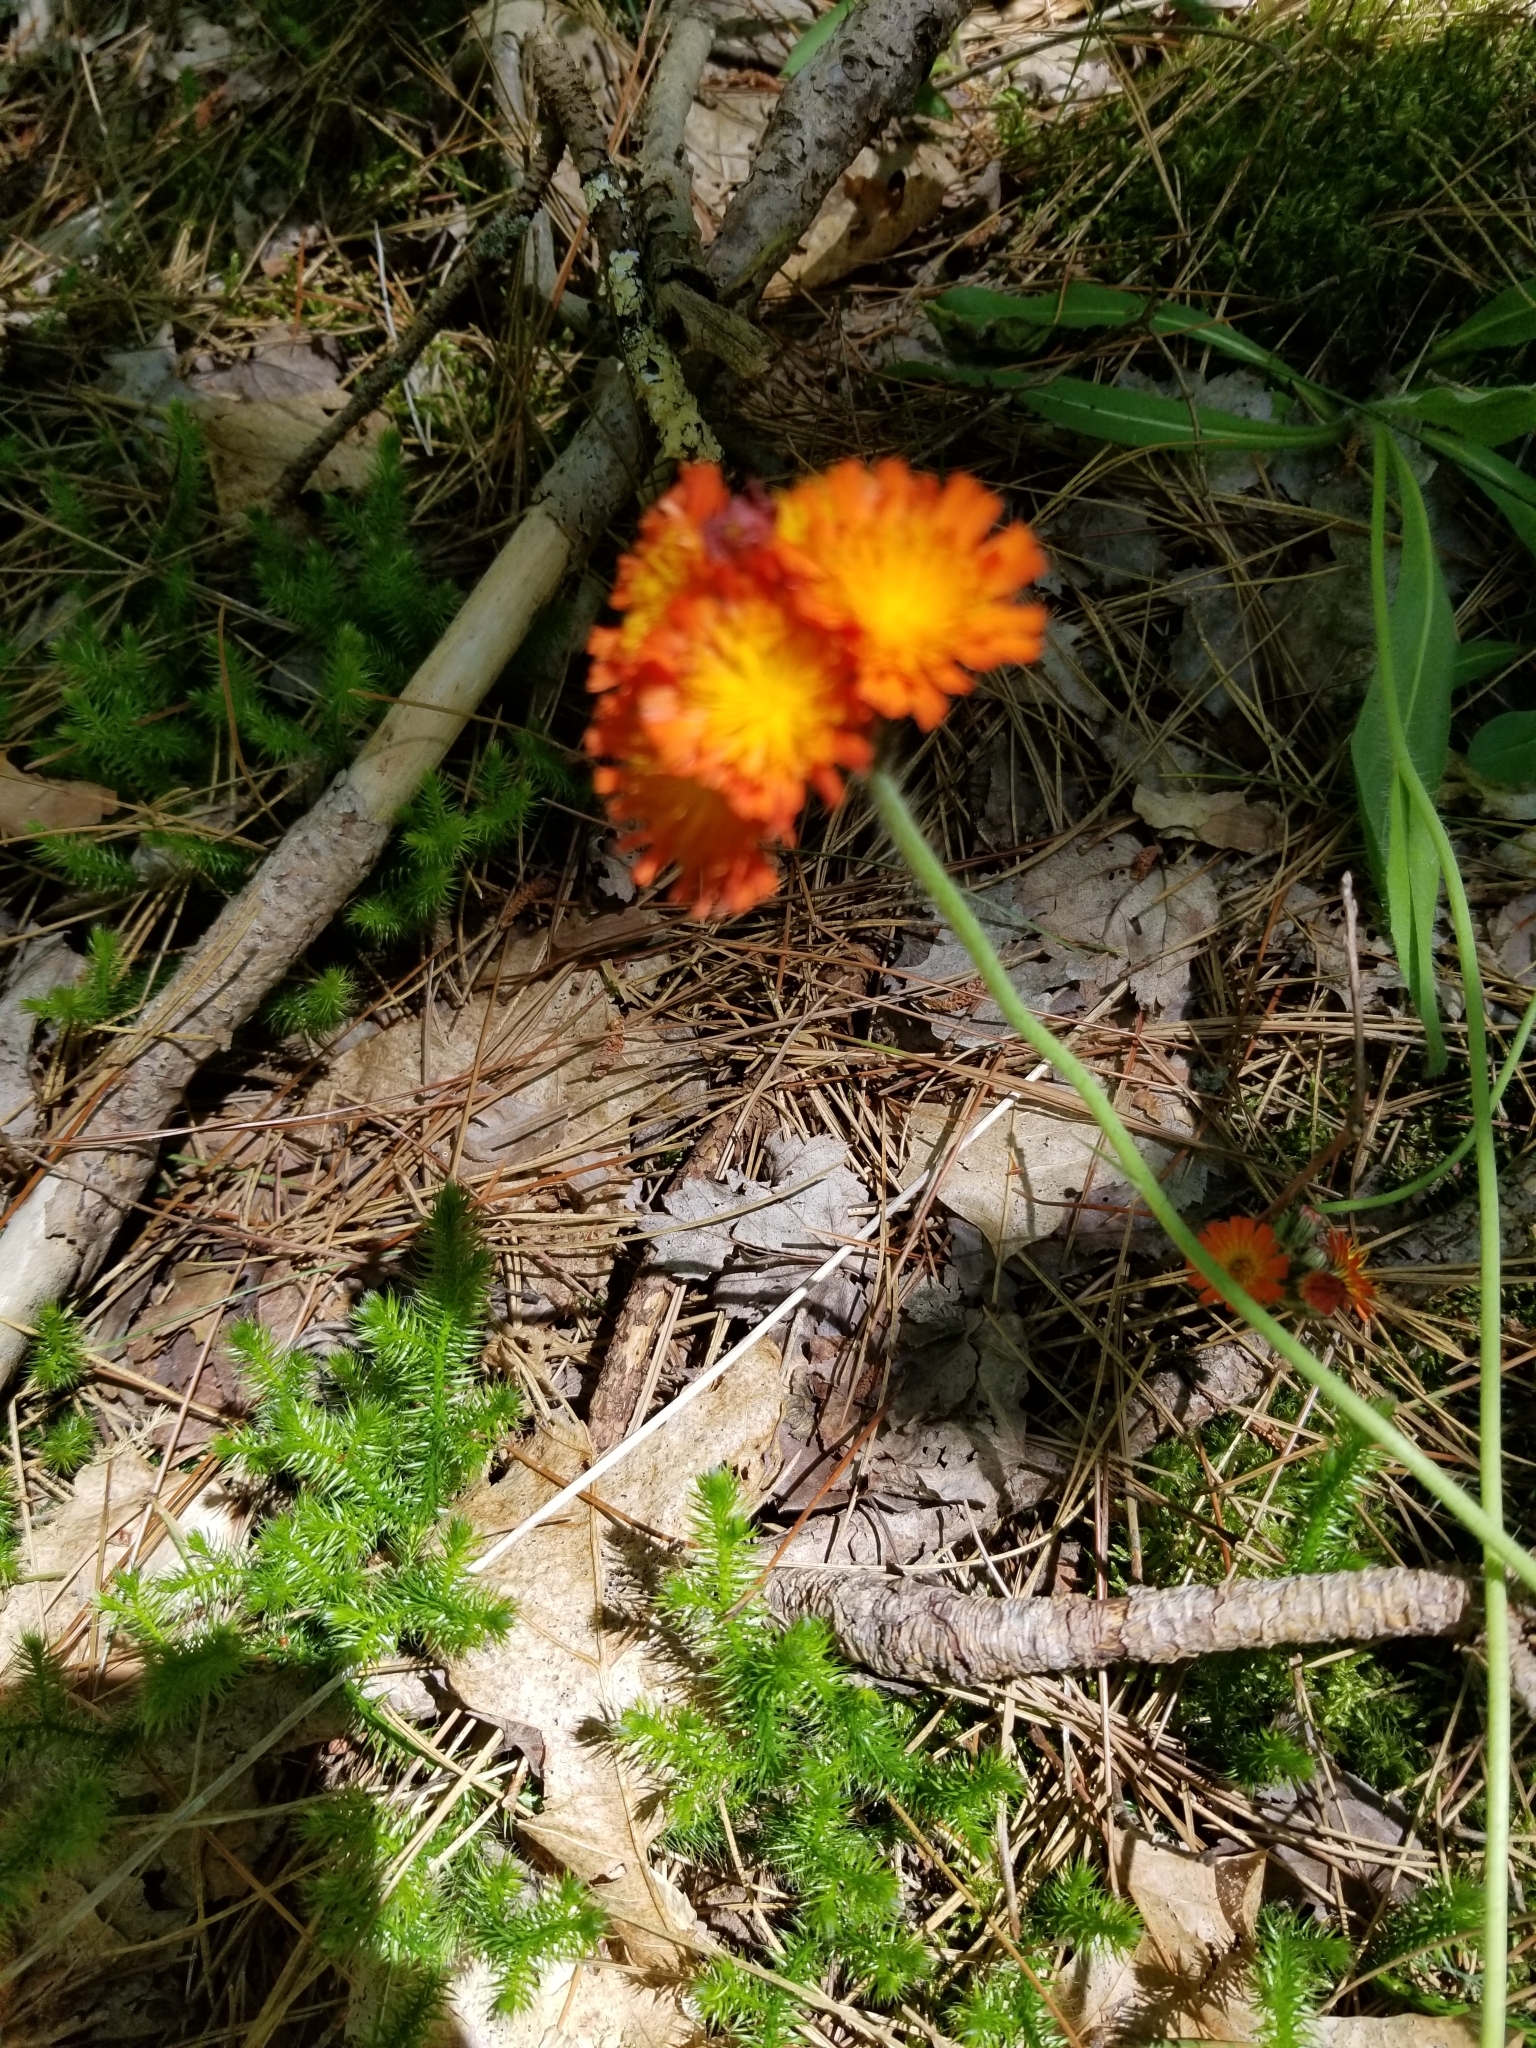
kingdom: Plantae
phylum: Tracheophyta
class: Magnoliopsida
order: Asterales
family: Asteraceae
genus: Pilosella
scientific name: Pilosella aurantiaca
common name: Fox-and-cubs
